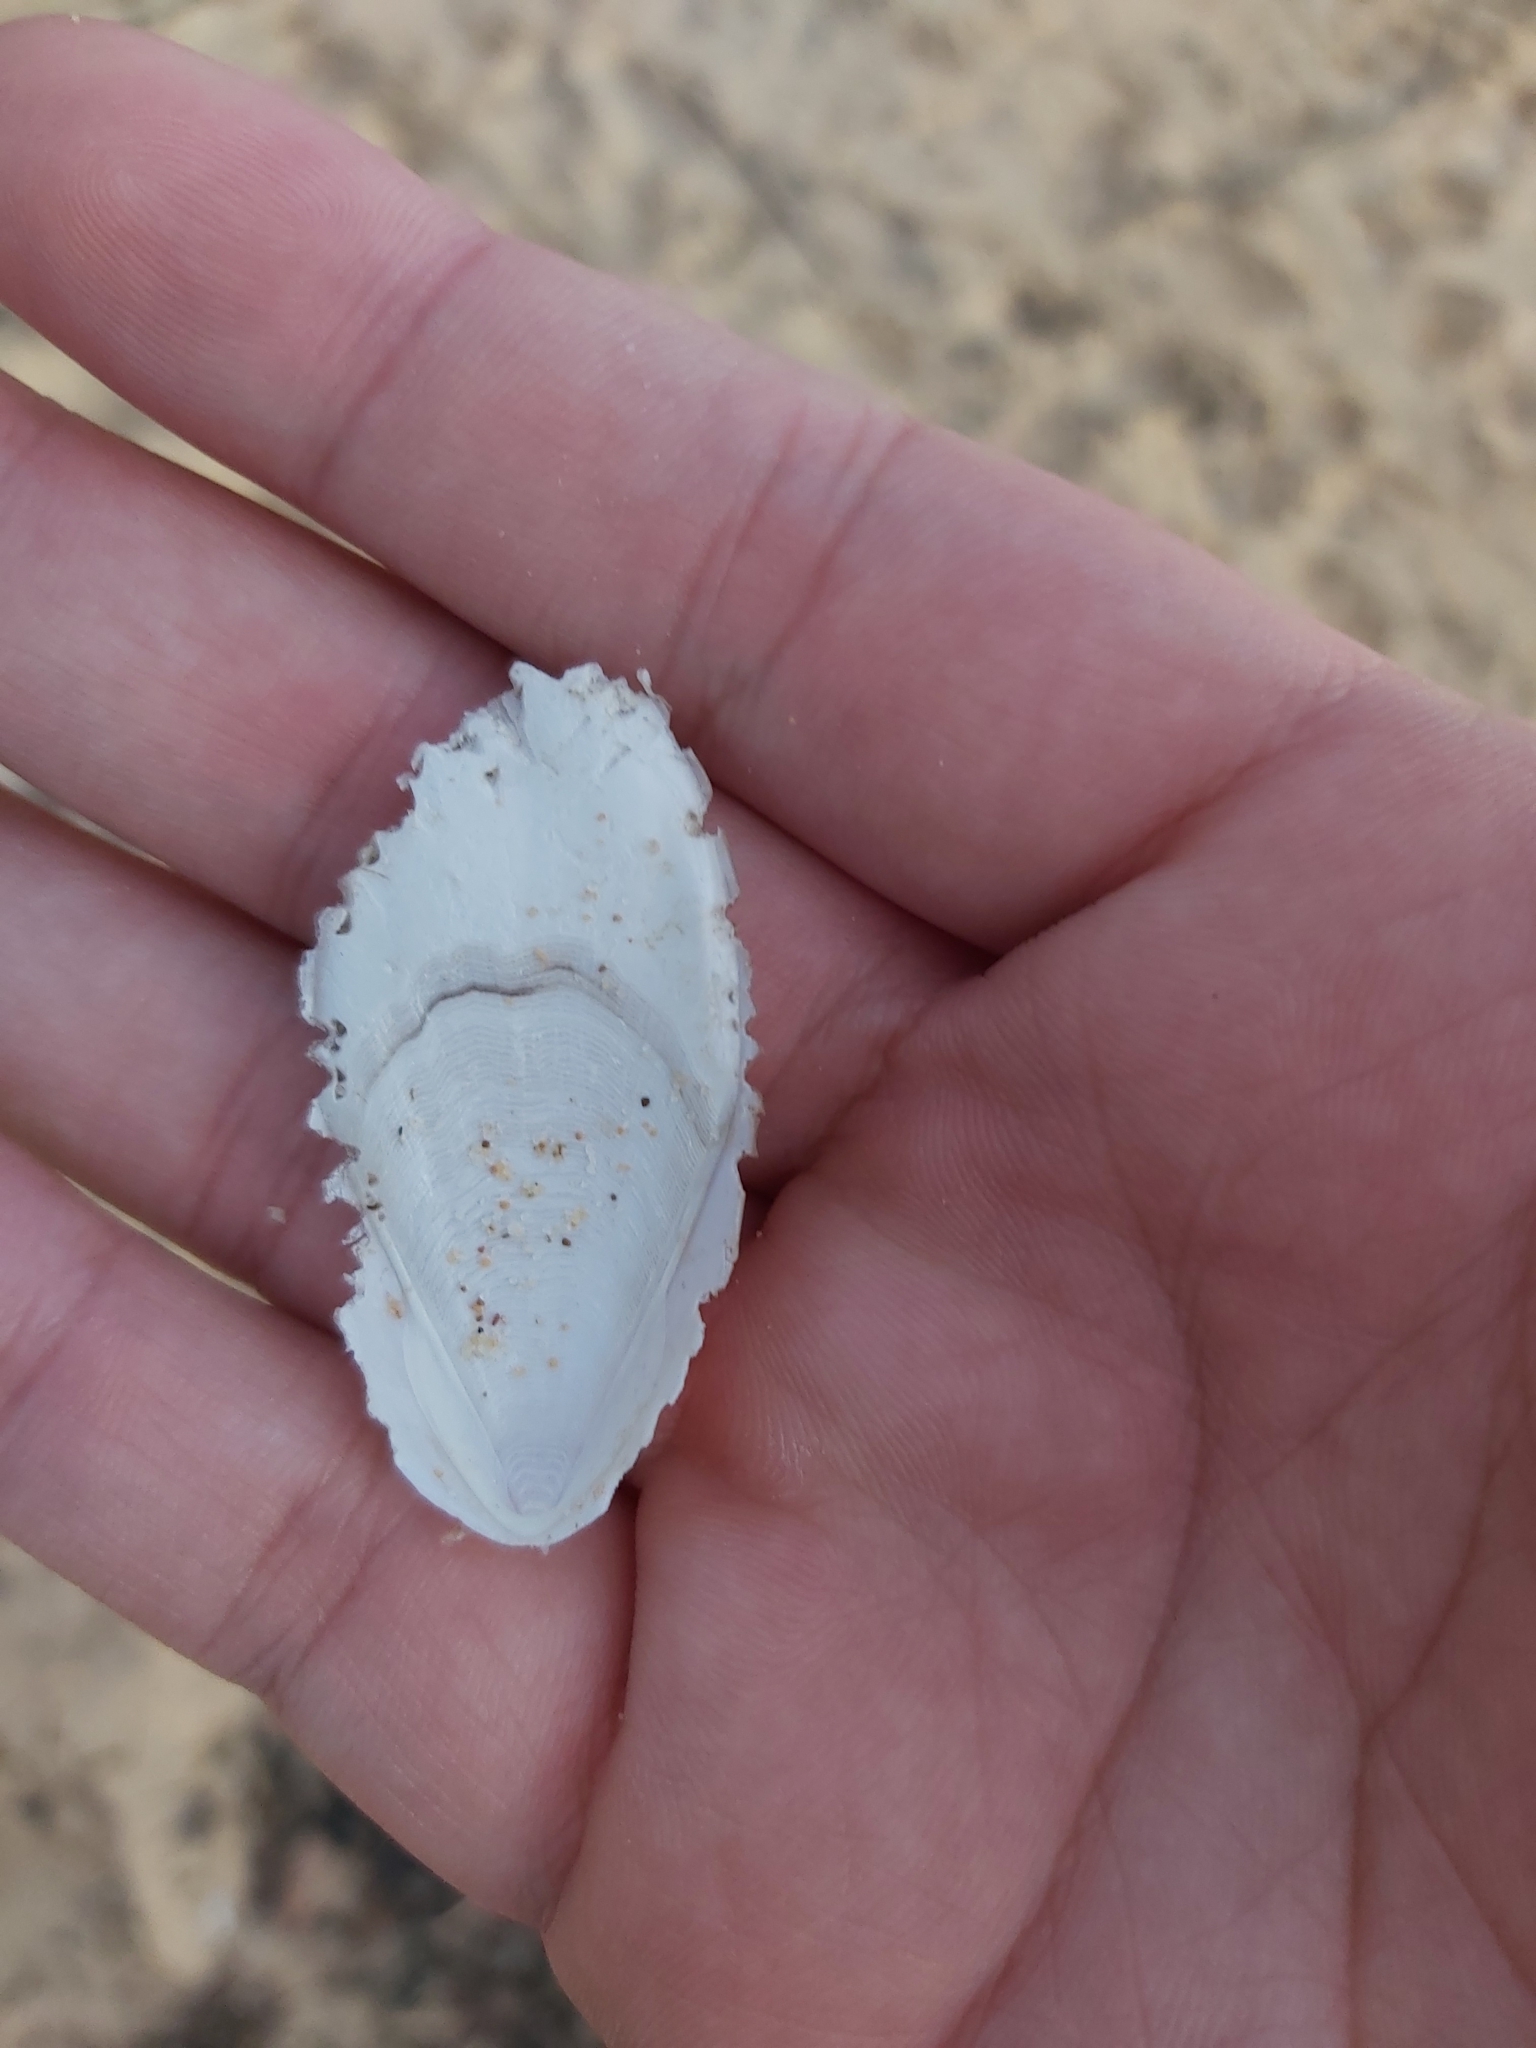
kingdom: Animalia
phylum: Mollusca
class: Cephalopoda
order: Sepiida
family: Sepiidae
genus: Ascarosepion
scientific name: Ascarosepion mestus
